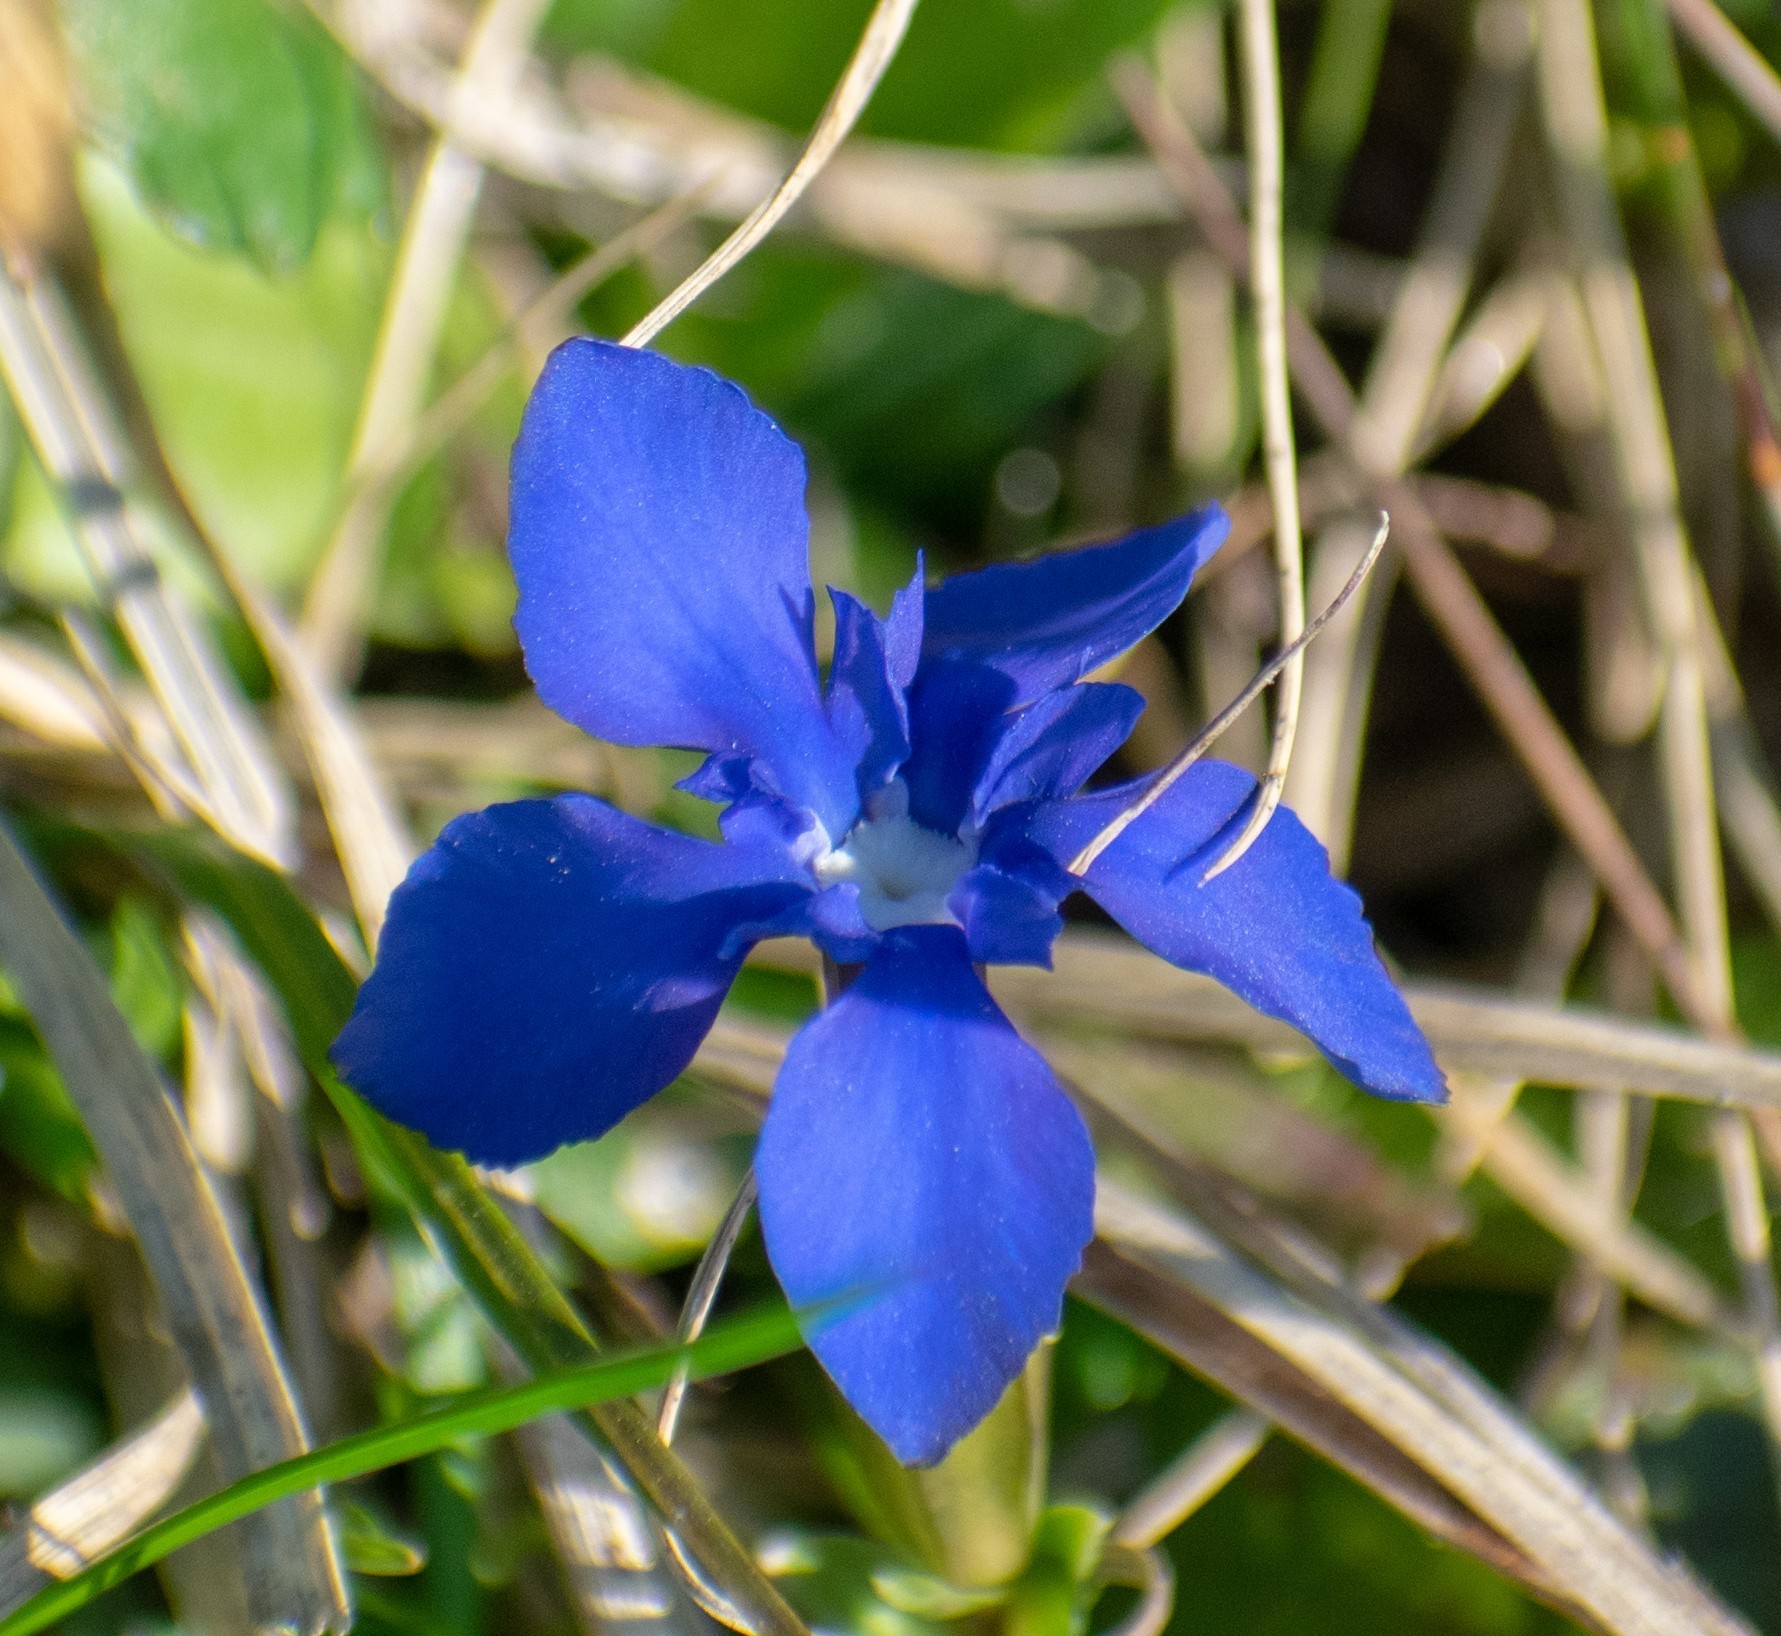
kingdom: Plantae
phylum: Tracheophyta
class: Magnoliopsida
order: Gentianales
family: Gentianaceae
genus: Gentiana
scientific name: Gentiana verna
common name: Spring gentian
